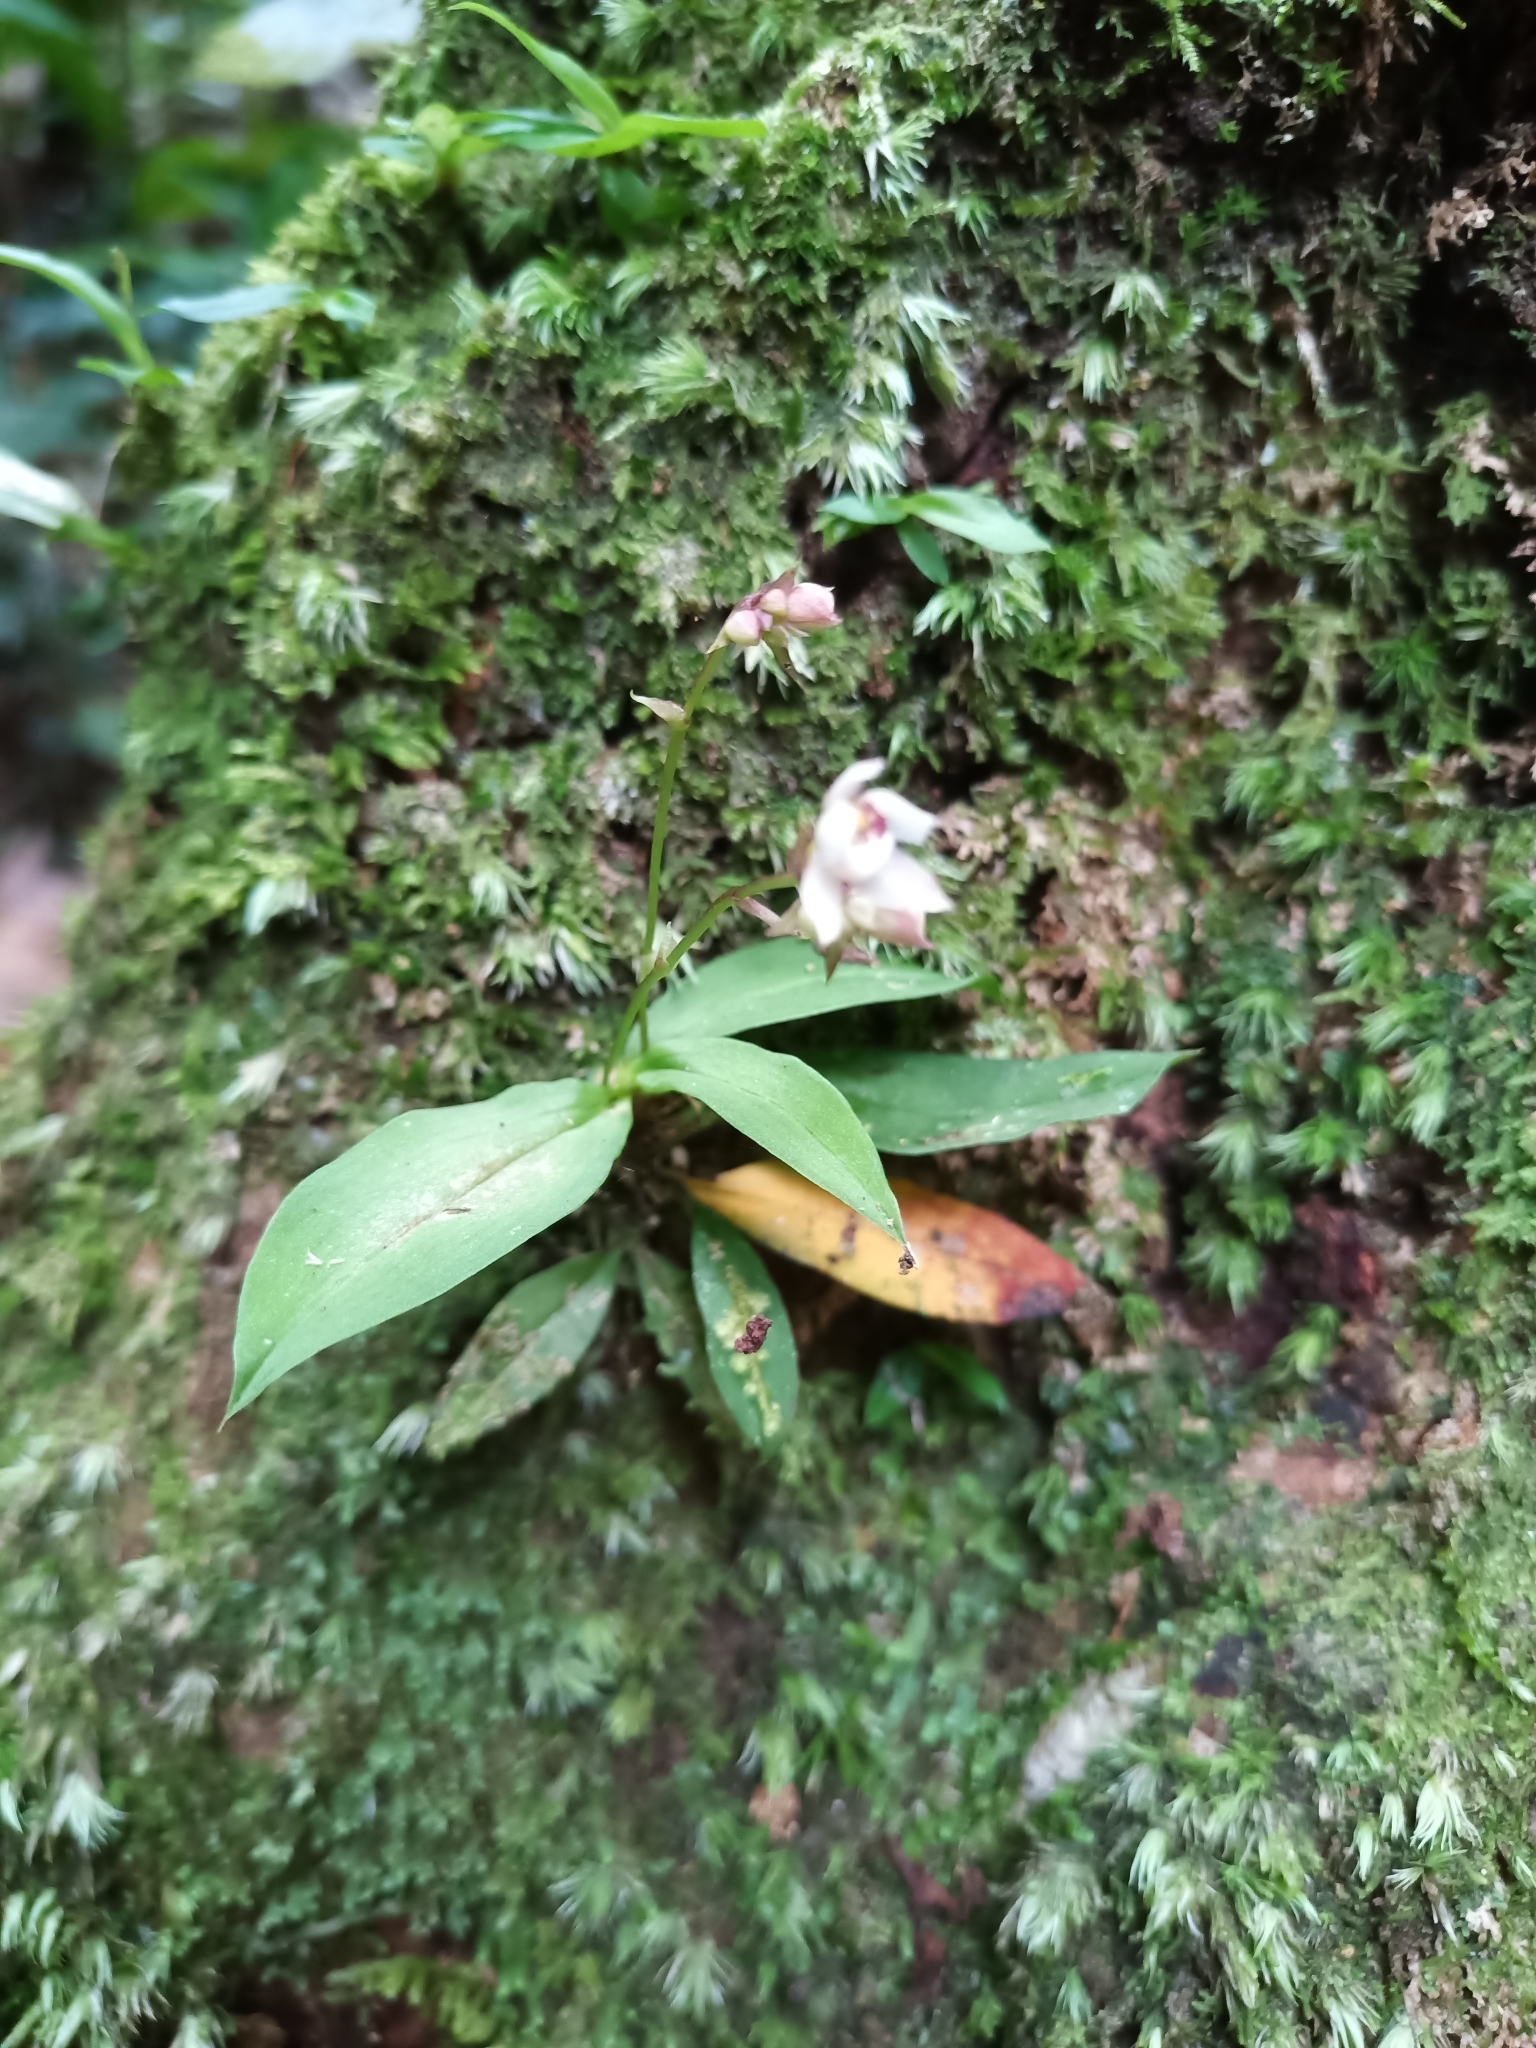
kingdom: Plantae
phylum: Tracheophyta
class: Liliopsida
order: Asparagales
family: Orchidaceae
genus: Cheiradenia
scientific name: Cheiradenia cuspidata
